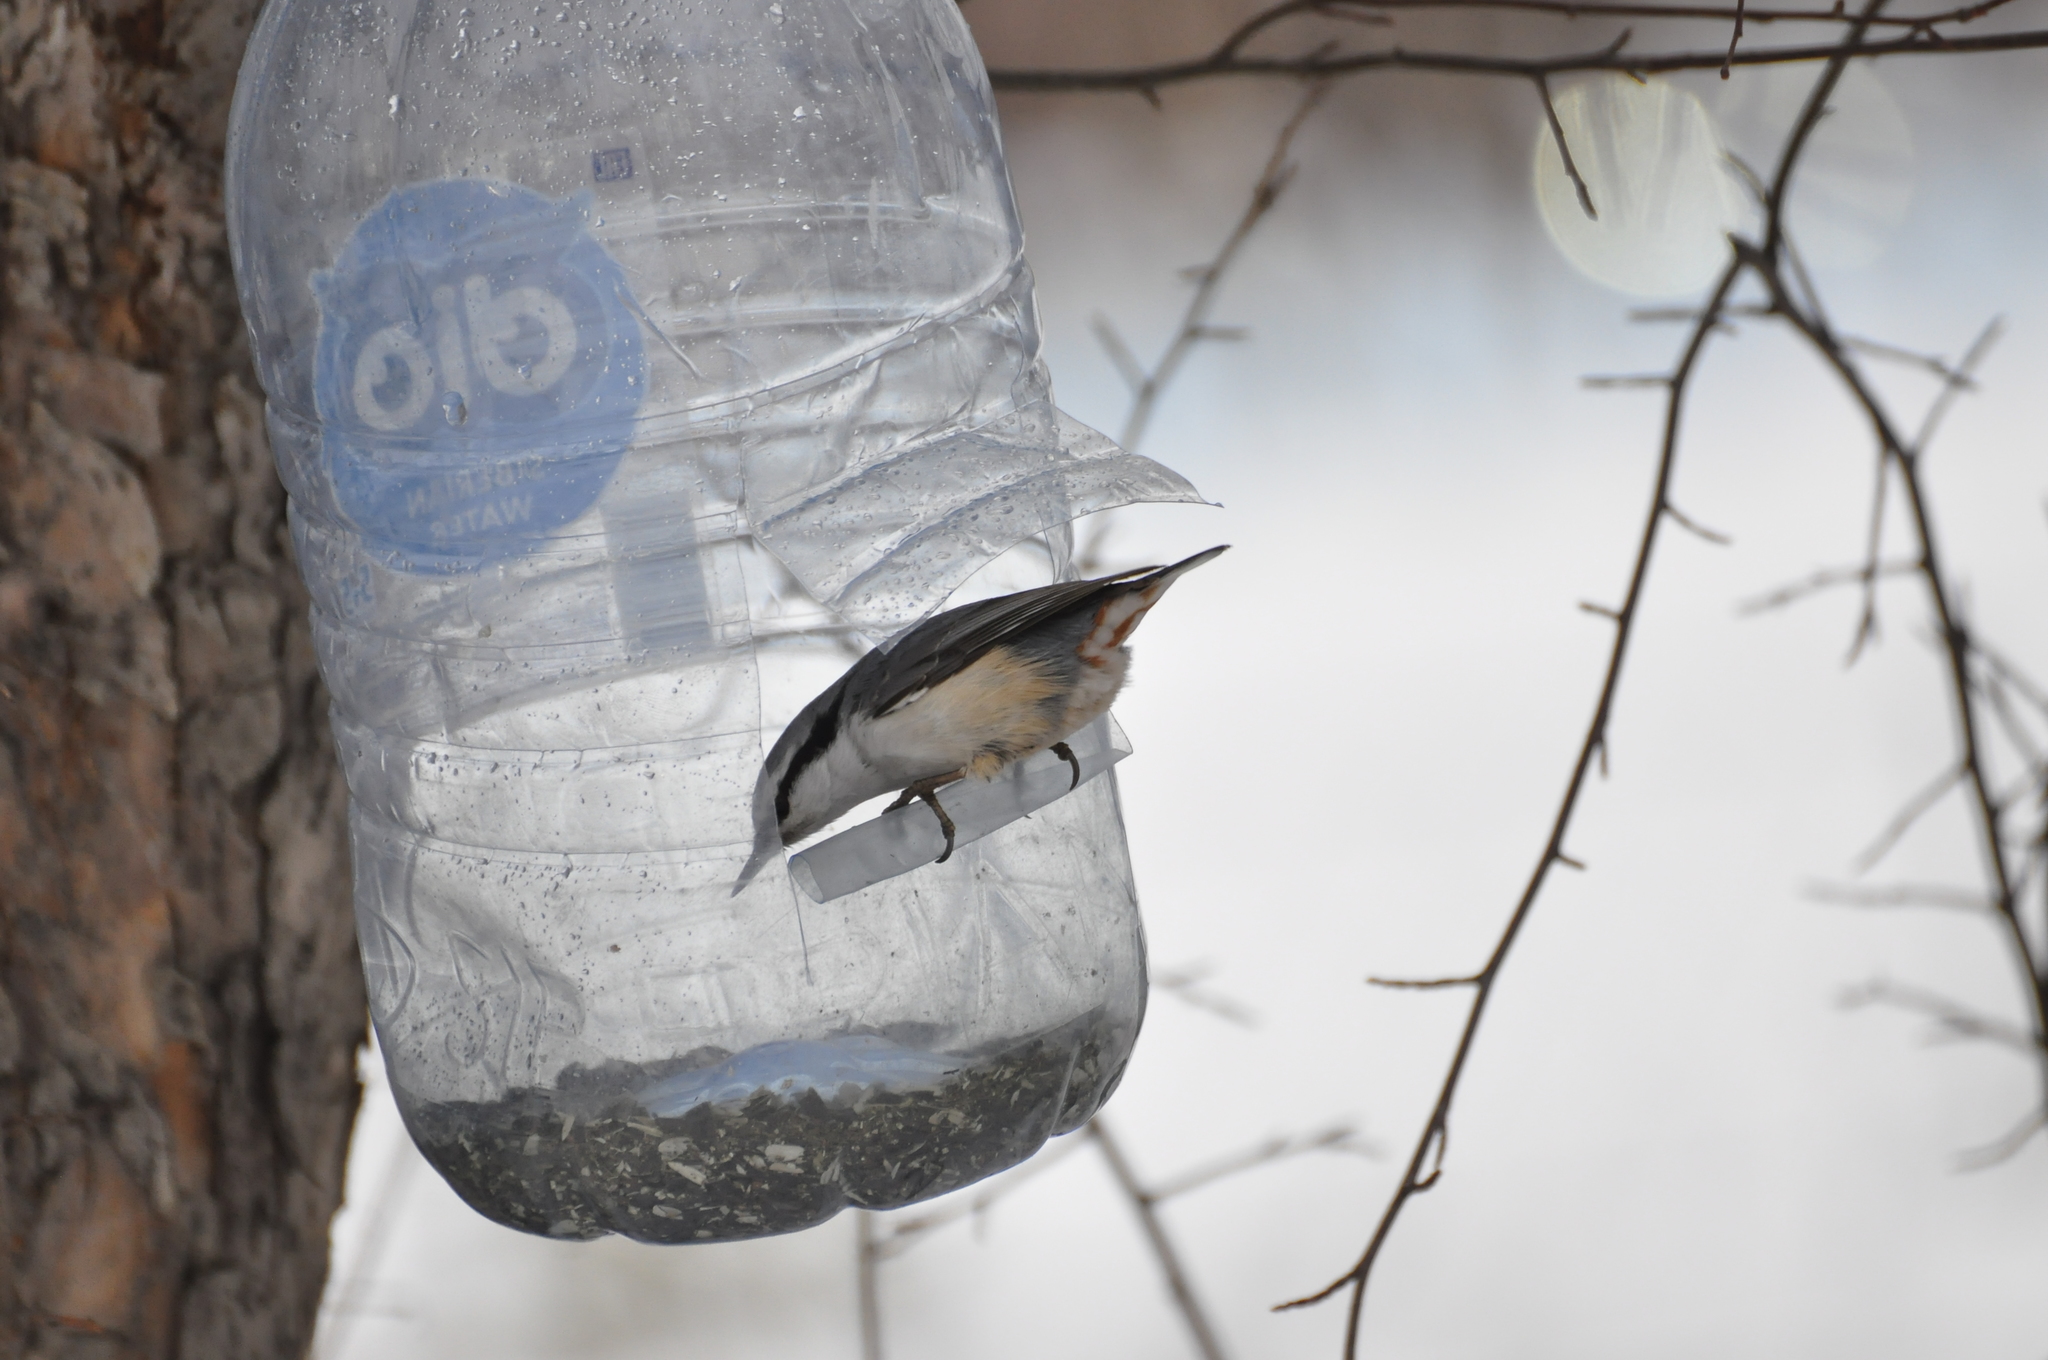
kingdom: Animalia
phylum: Chordata
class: Aves
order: Passeriformes
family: Sittidae
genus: Sitta
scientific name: Sitta europaea
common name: Eurasian nuthatch
